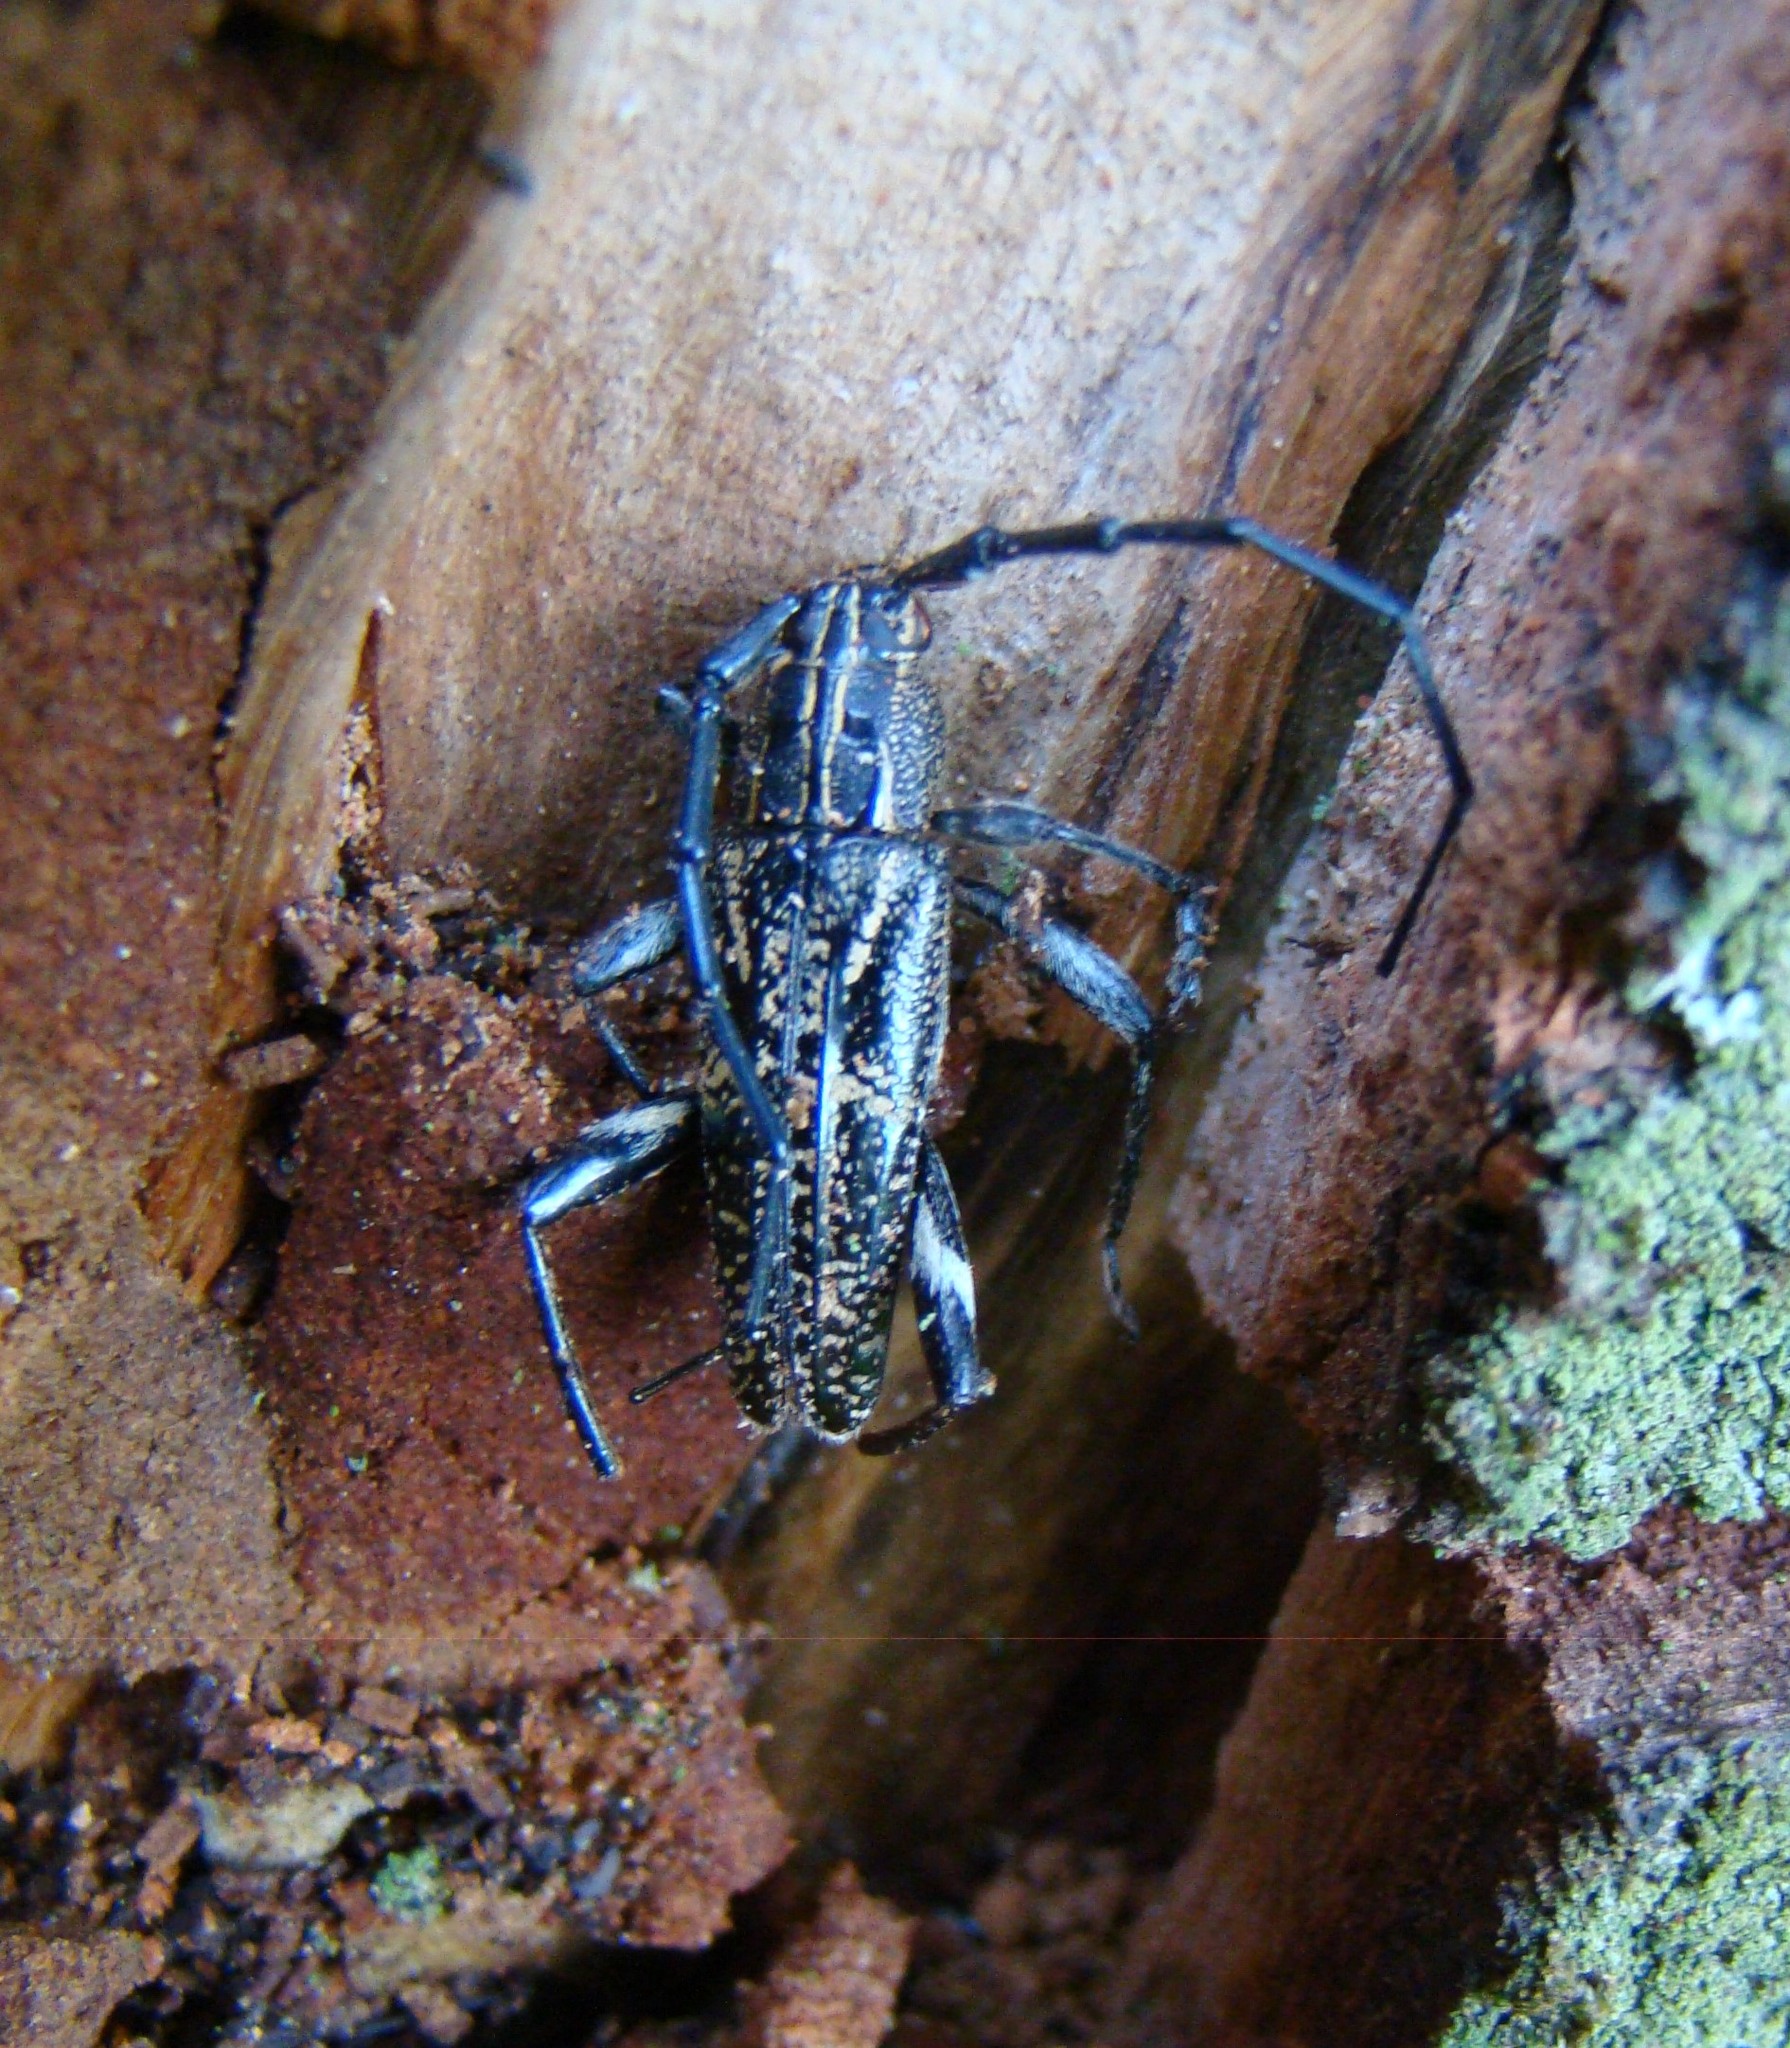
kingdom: Animalia
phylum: Arthropoda
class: Insecta
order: Coleoptera
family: Cerambycidae
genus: Coptomma
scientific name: Coptomma variegatum
